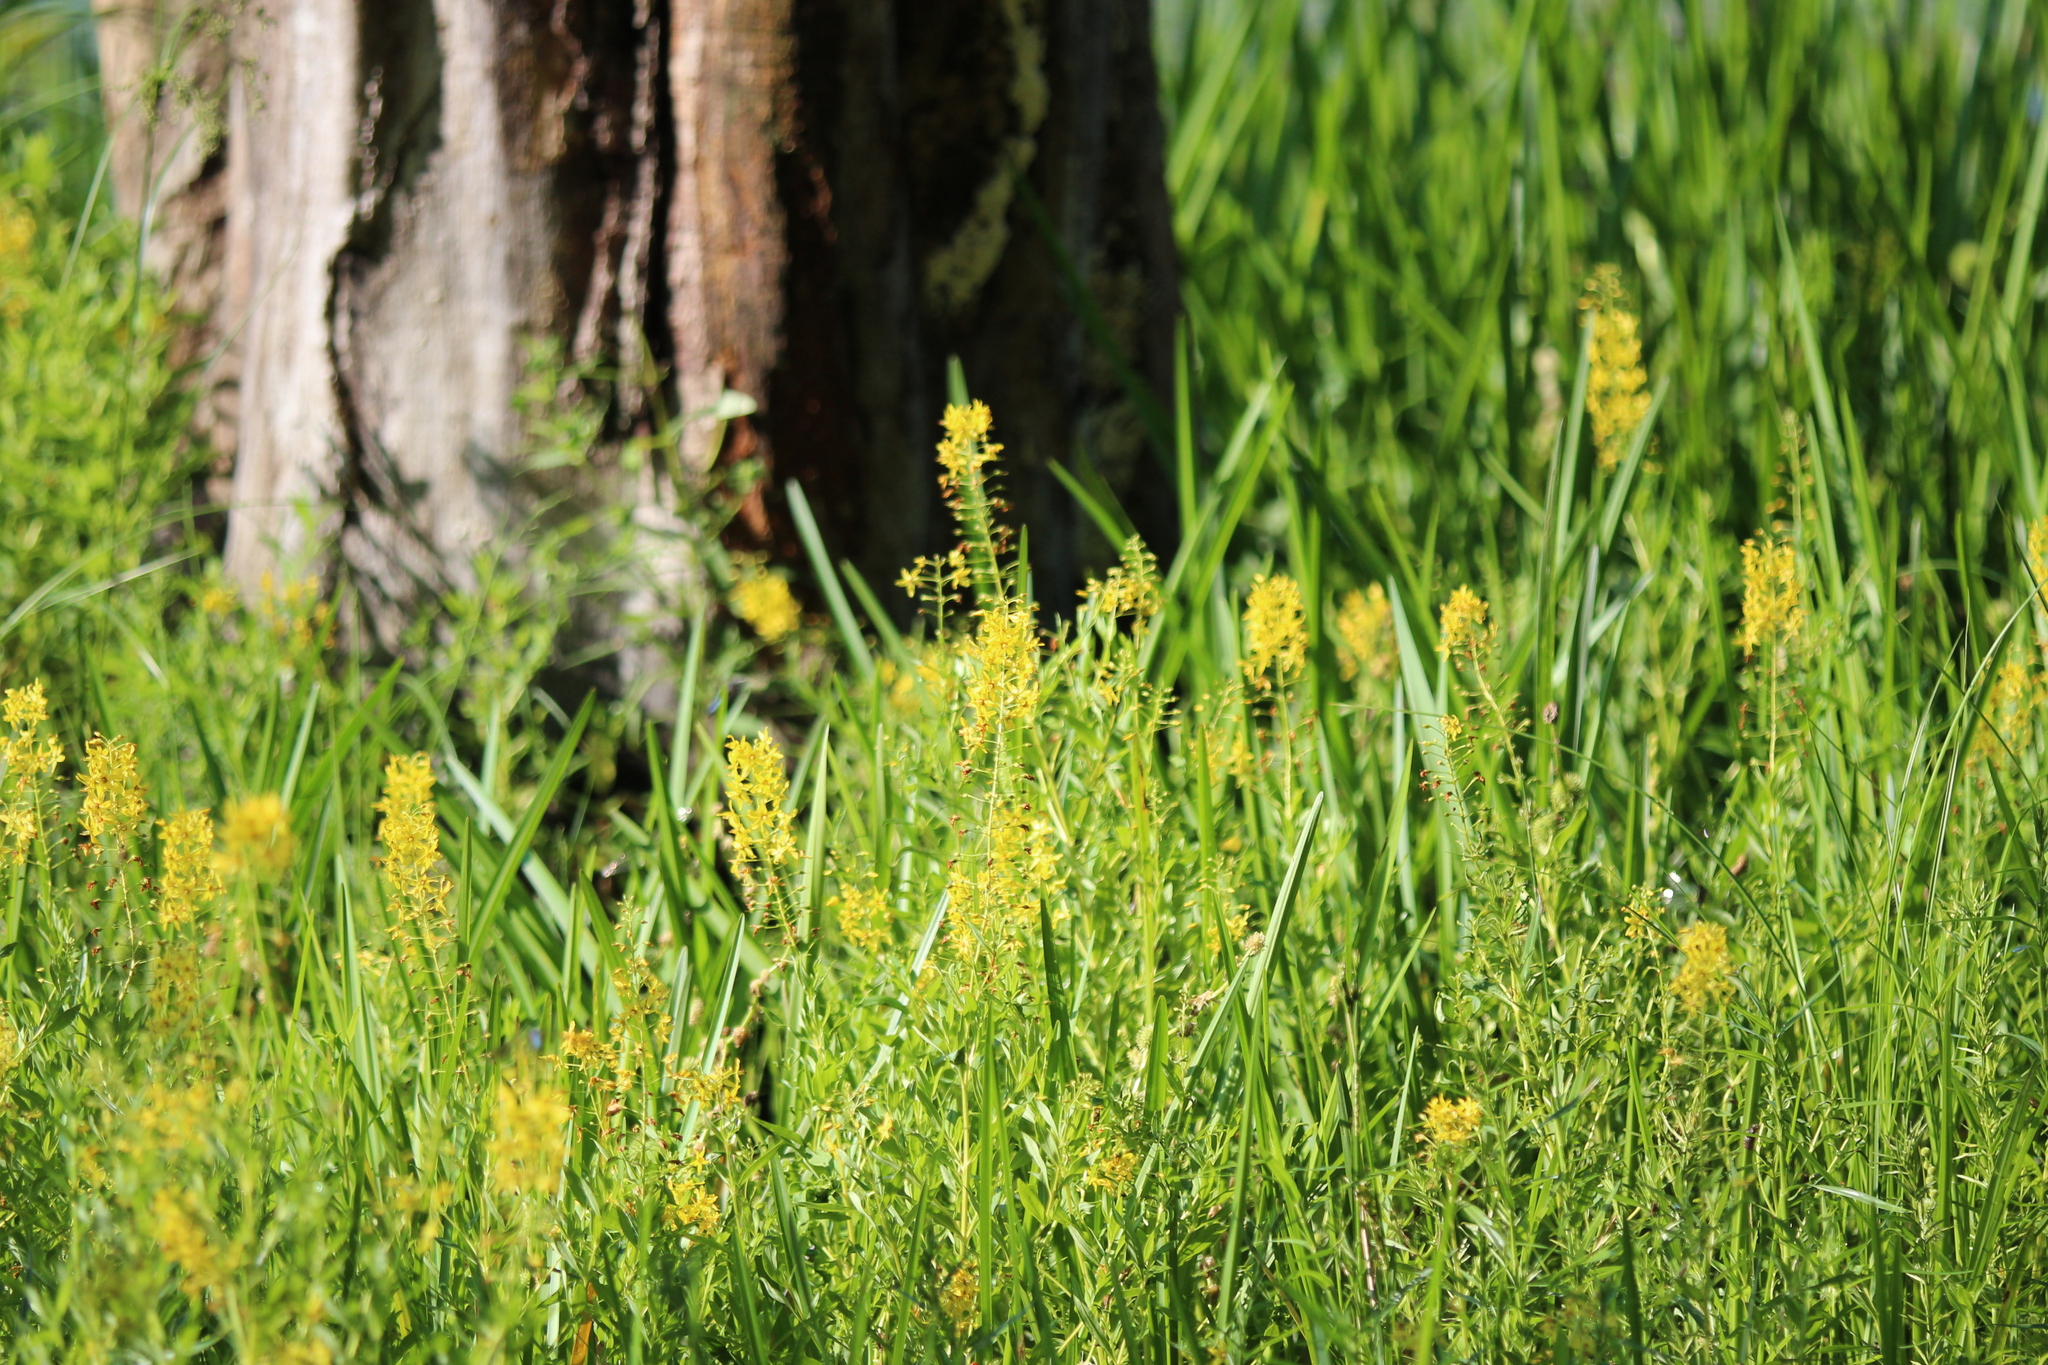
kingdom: Plantae
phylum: Tracheophyta
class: Magnoliopsida
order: Ericales
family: Primulaceae
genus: Lysimachia
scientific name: Lysimachia terrestris
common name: Lake loosestrife
